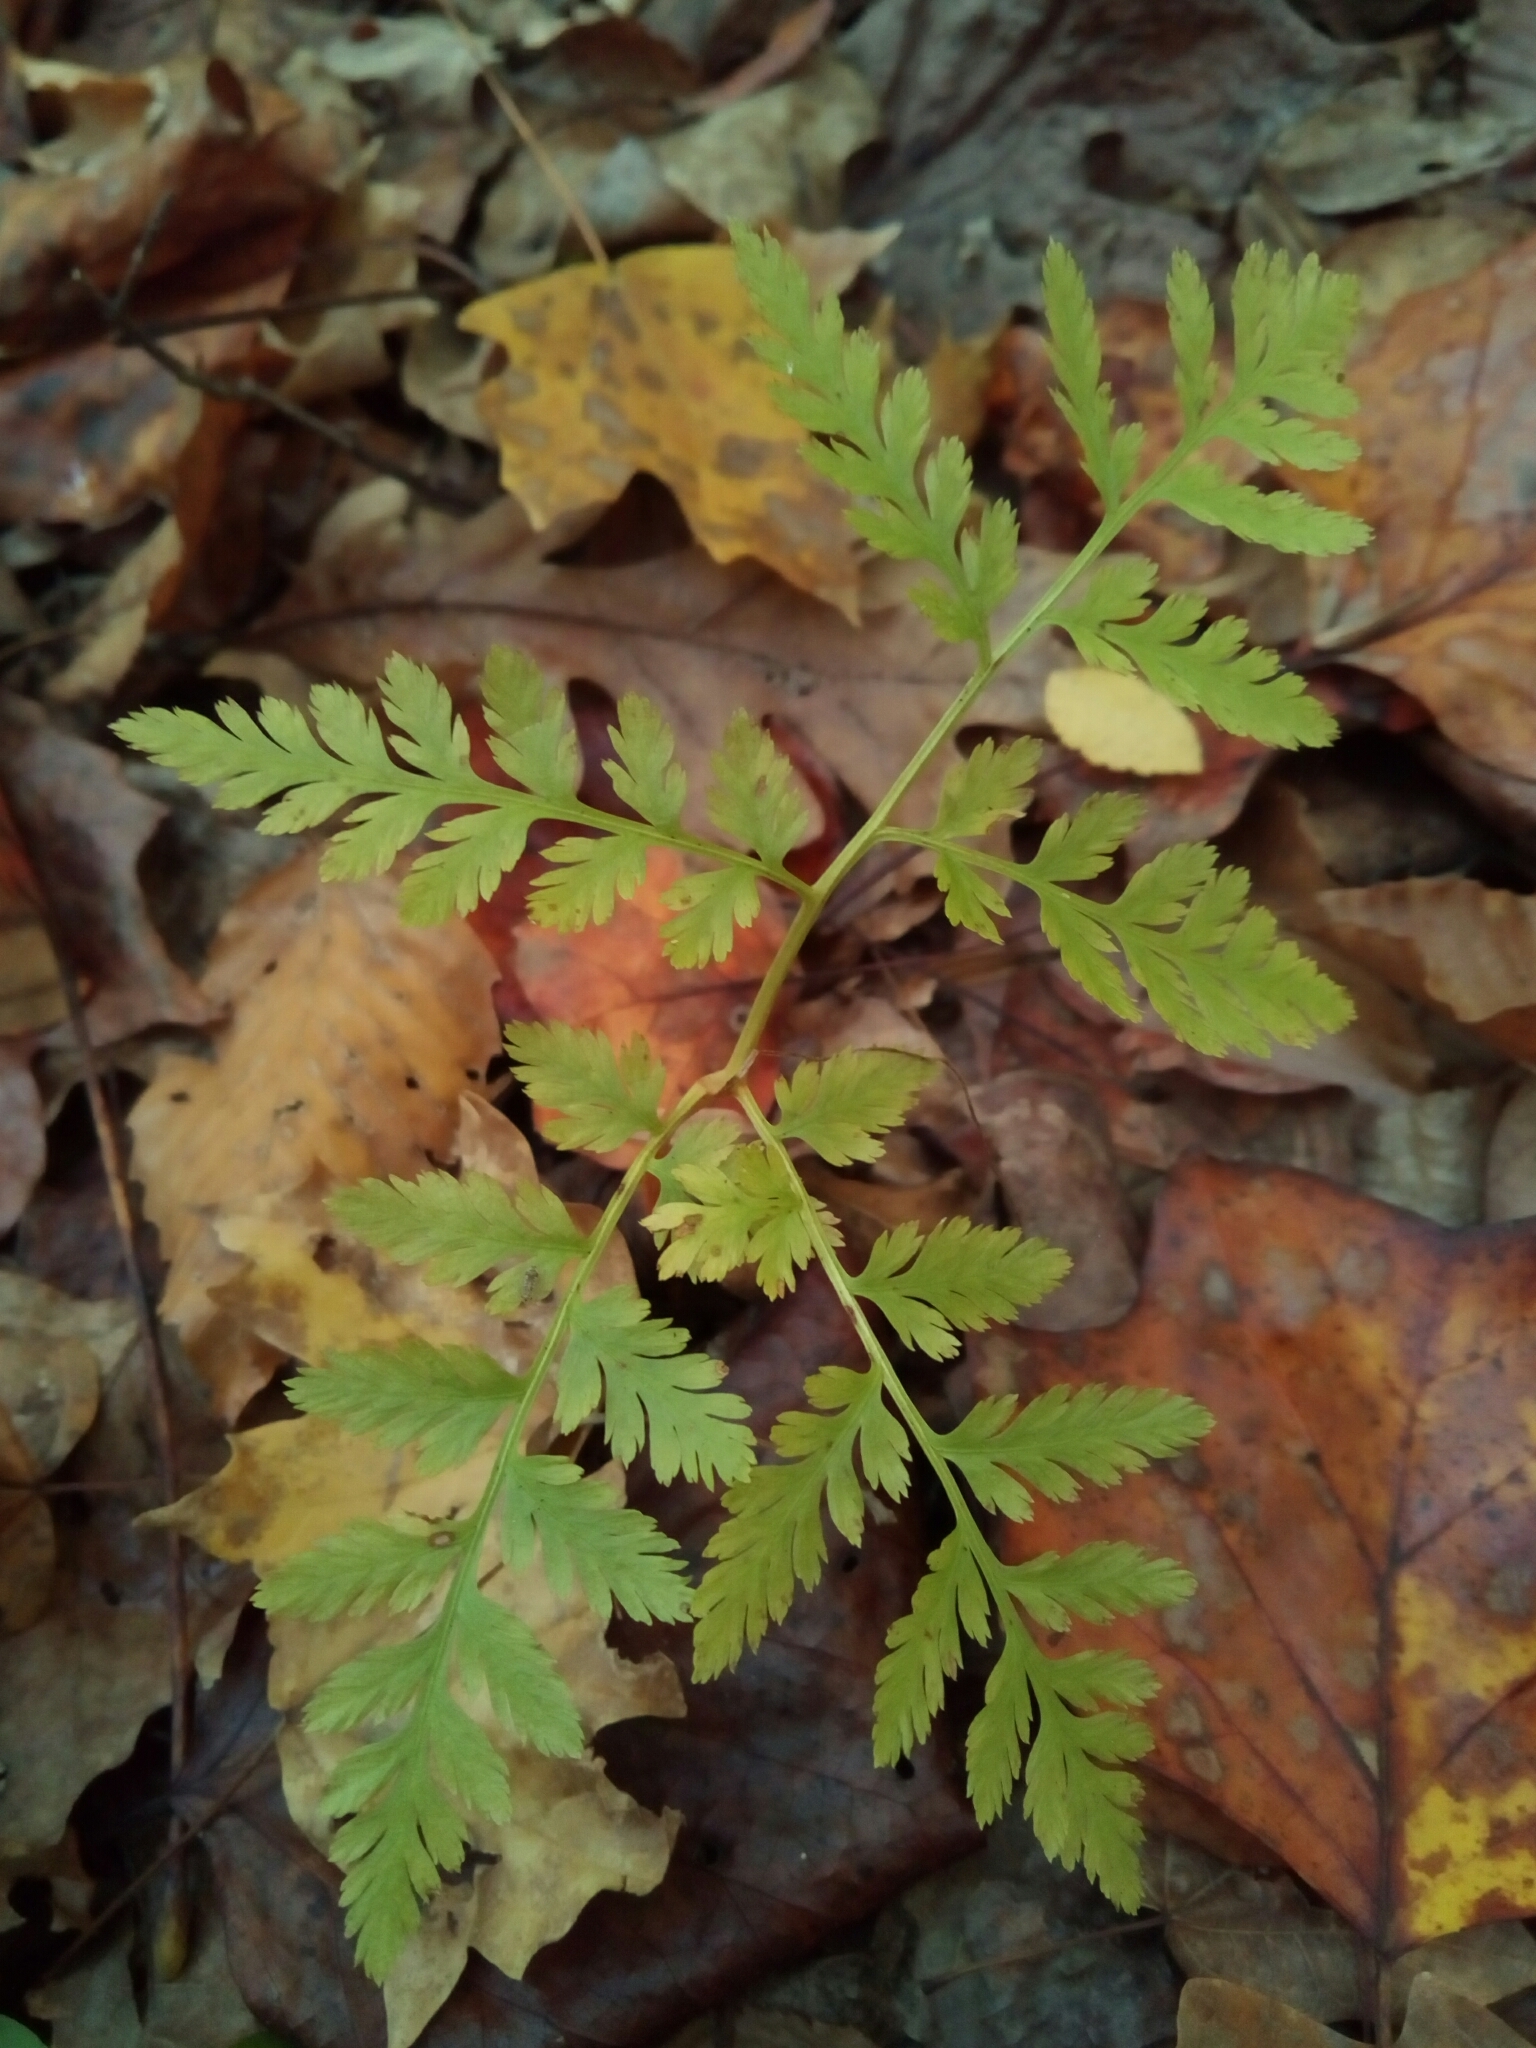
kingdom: Plantae
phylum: Tracheophyta
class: Polypodiopsida
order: Ophioglossales
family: Ophioglossaceae
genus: Botrypus
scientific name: Botrypus virginianus
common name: Common grapefern
